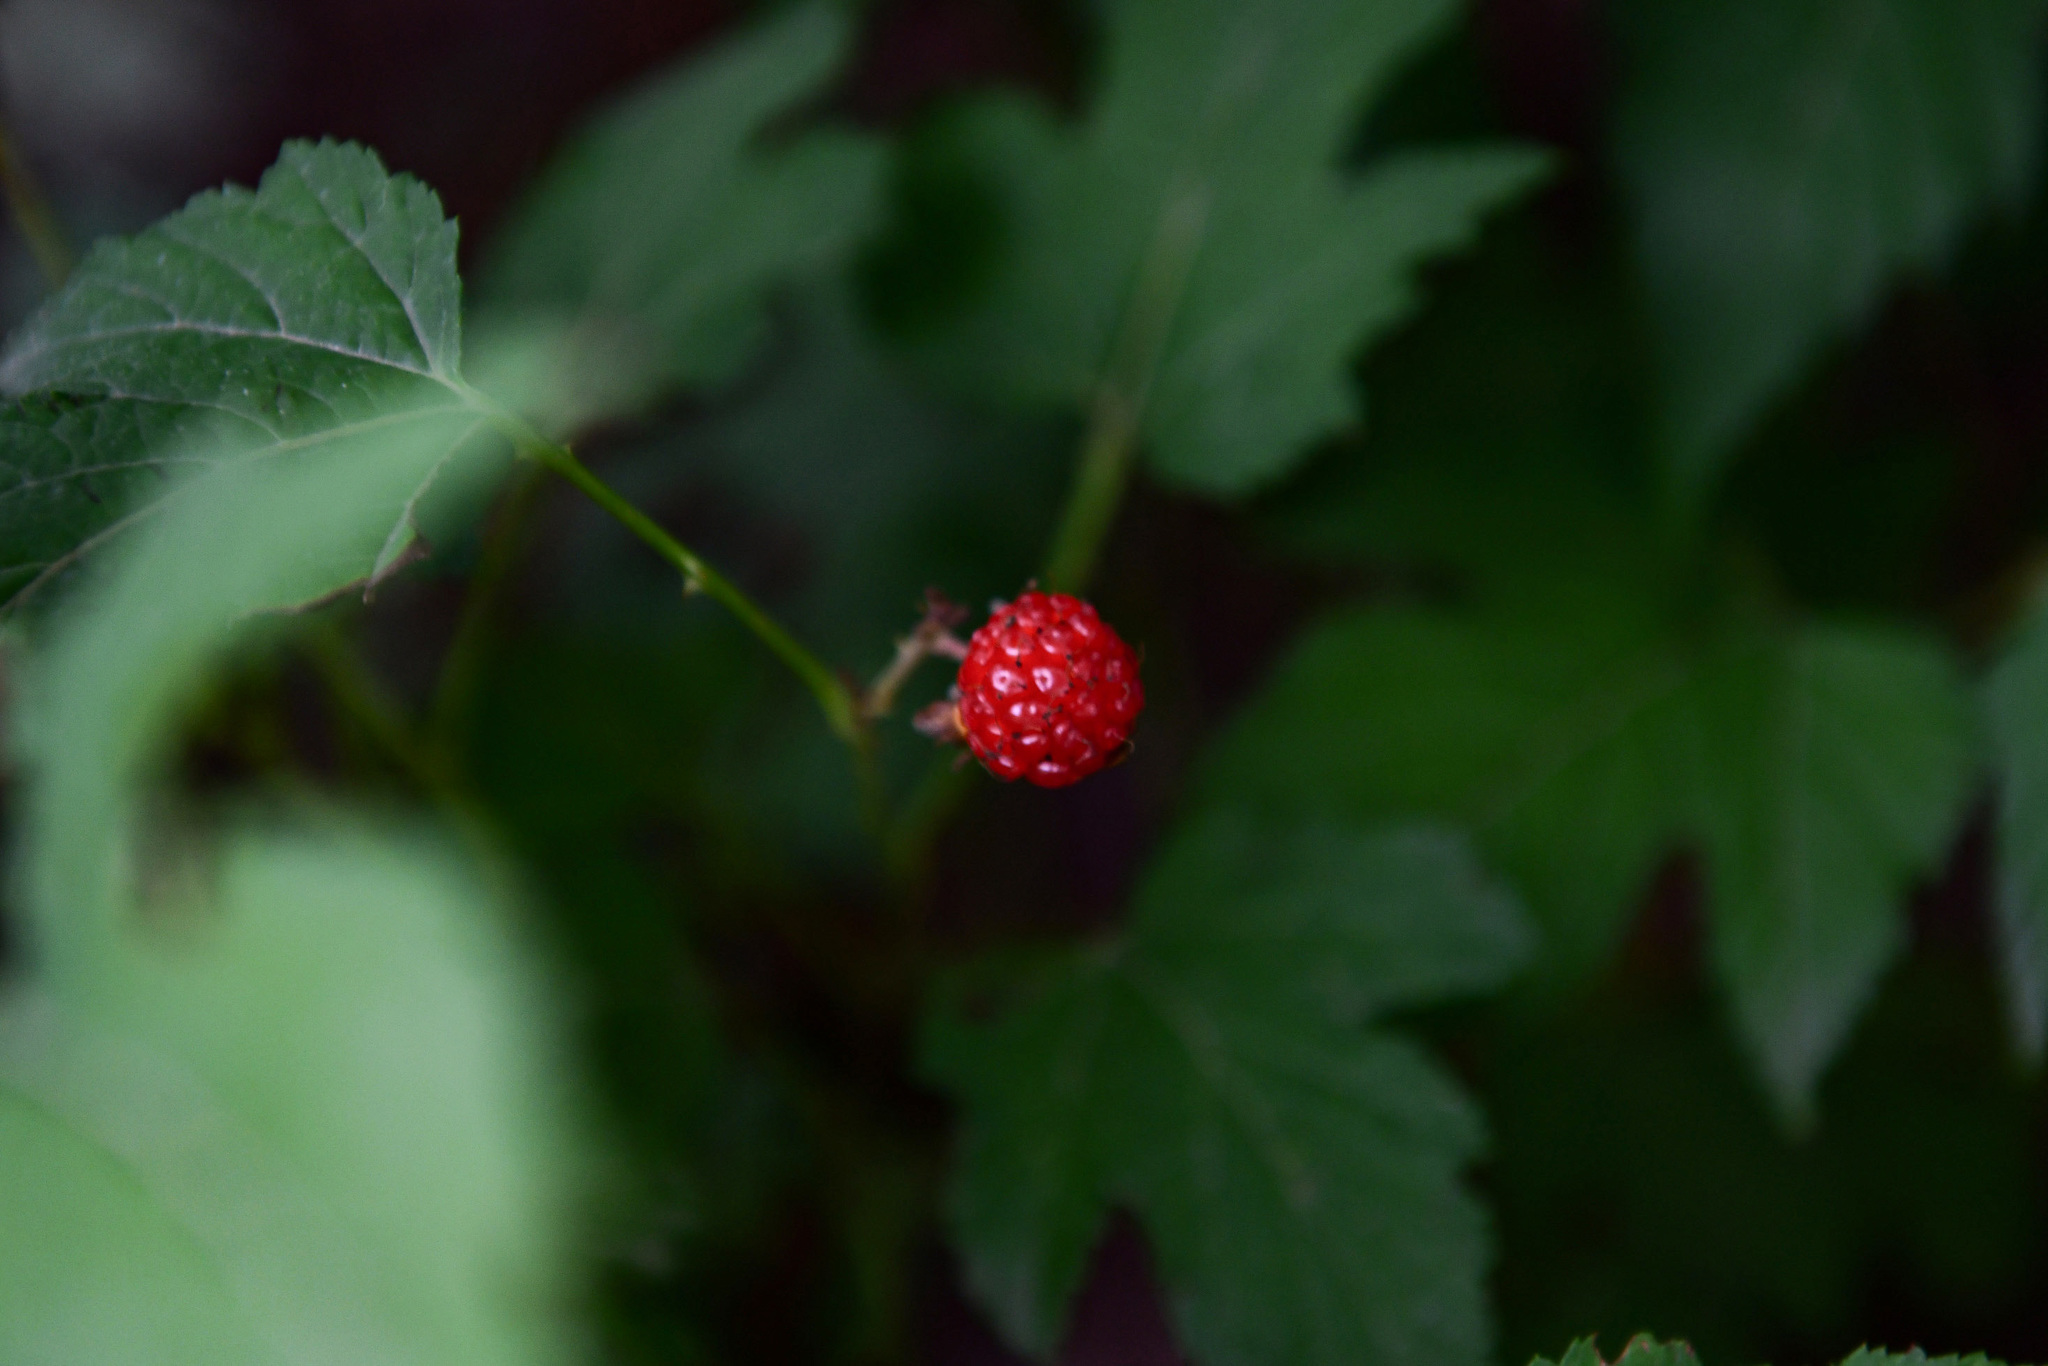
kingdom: Plantae
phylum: Tracheophyta
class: Magnoliopsida
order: Rosales
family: Rosaceae
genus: Rubus
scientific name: Rubus crataegifolius
